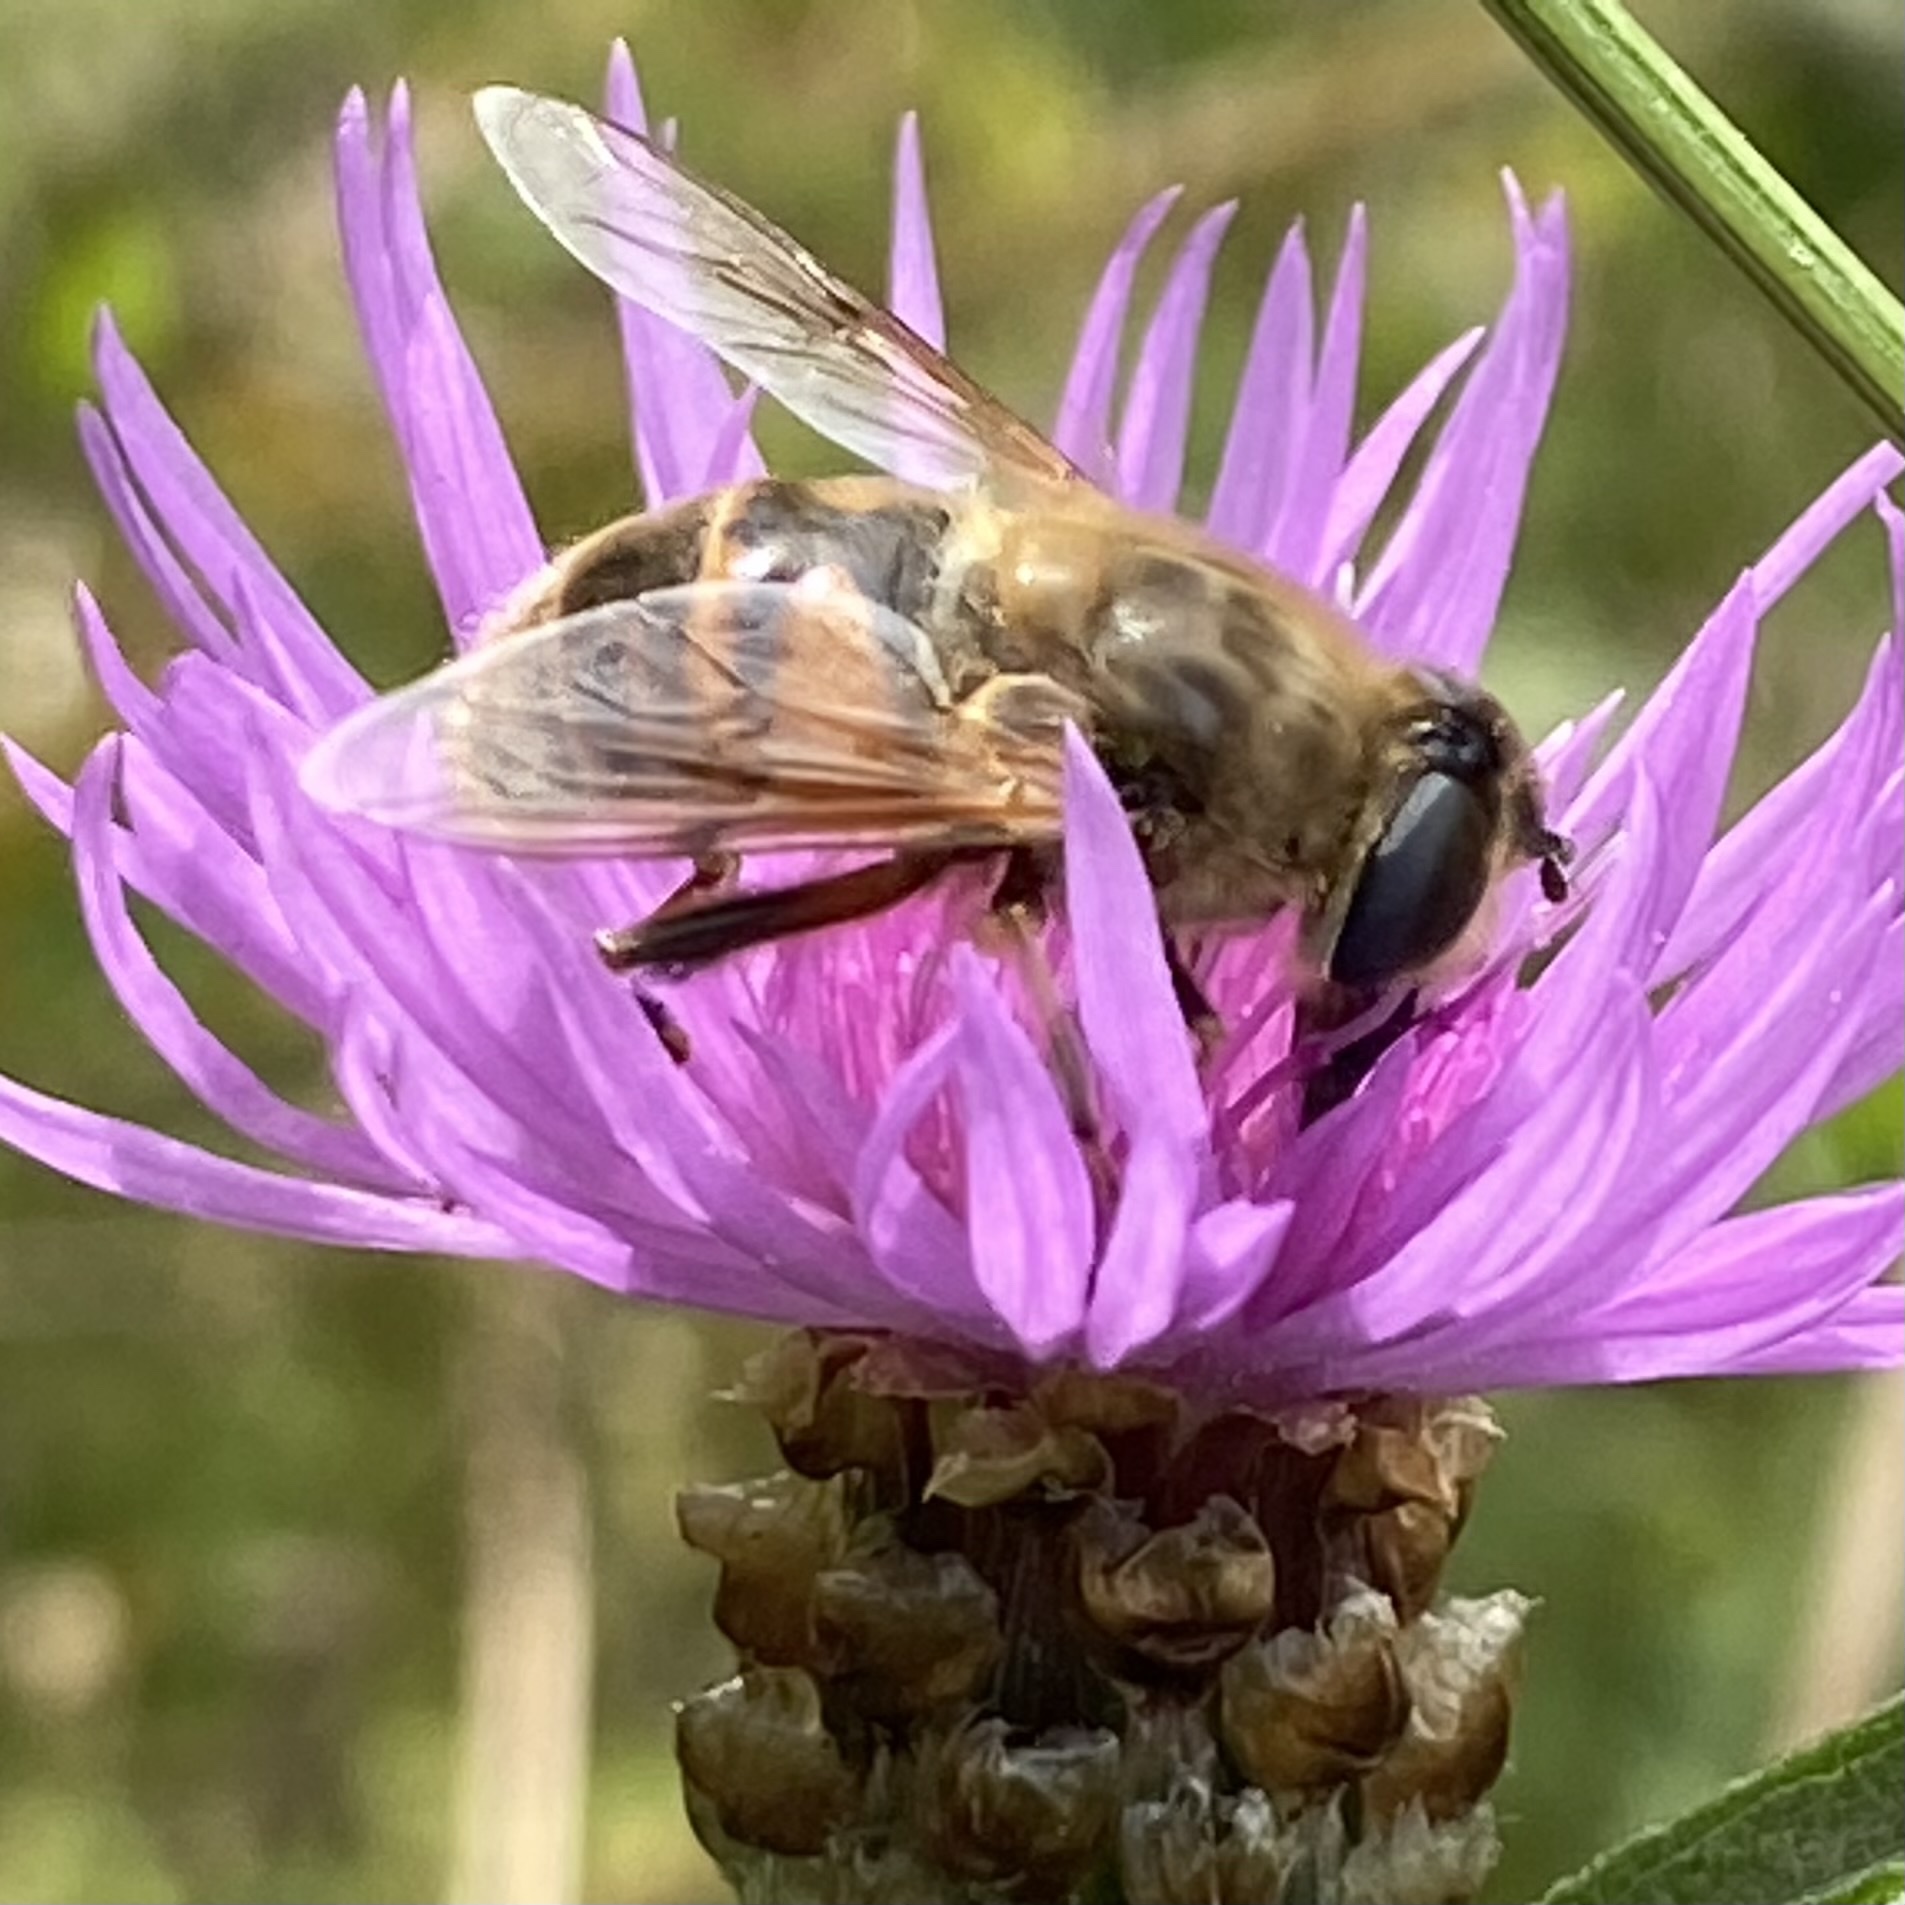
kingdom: Animalia
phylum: Arthropoda
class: Insecta
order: Diptera
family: Syrphidae
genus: Eristalis
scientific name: Eristalis tenax
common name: Drone fly
